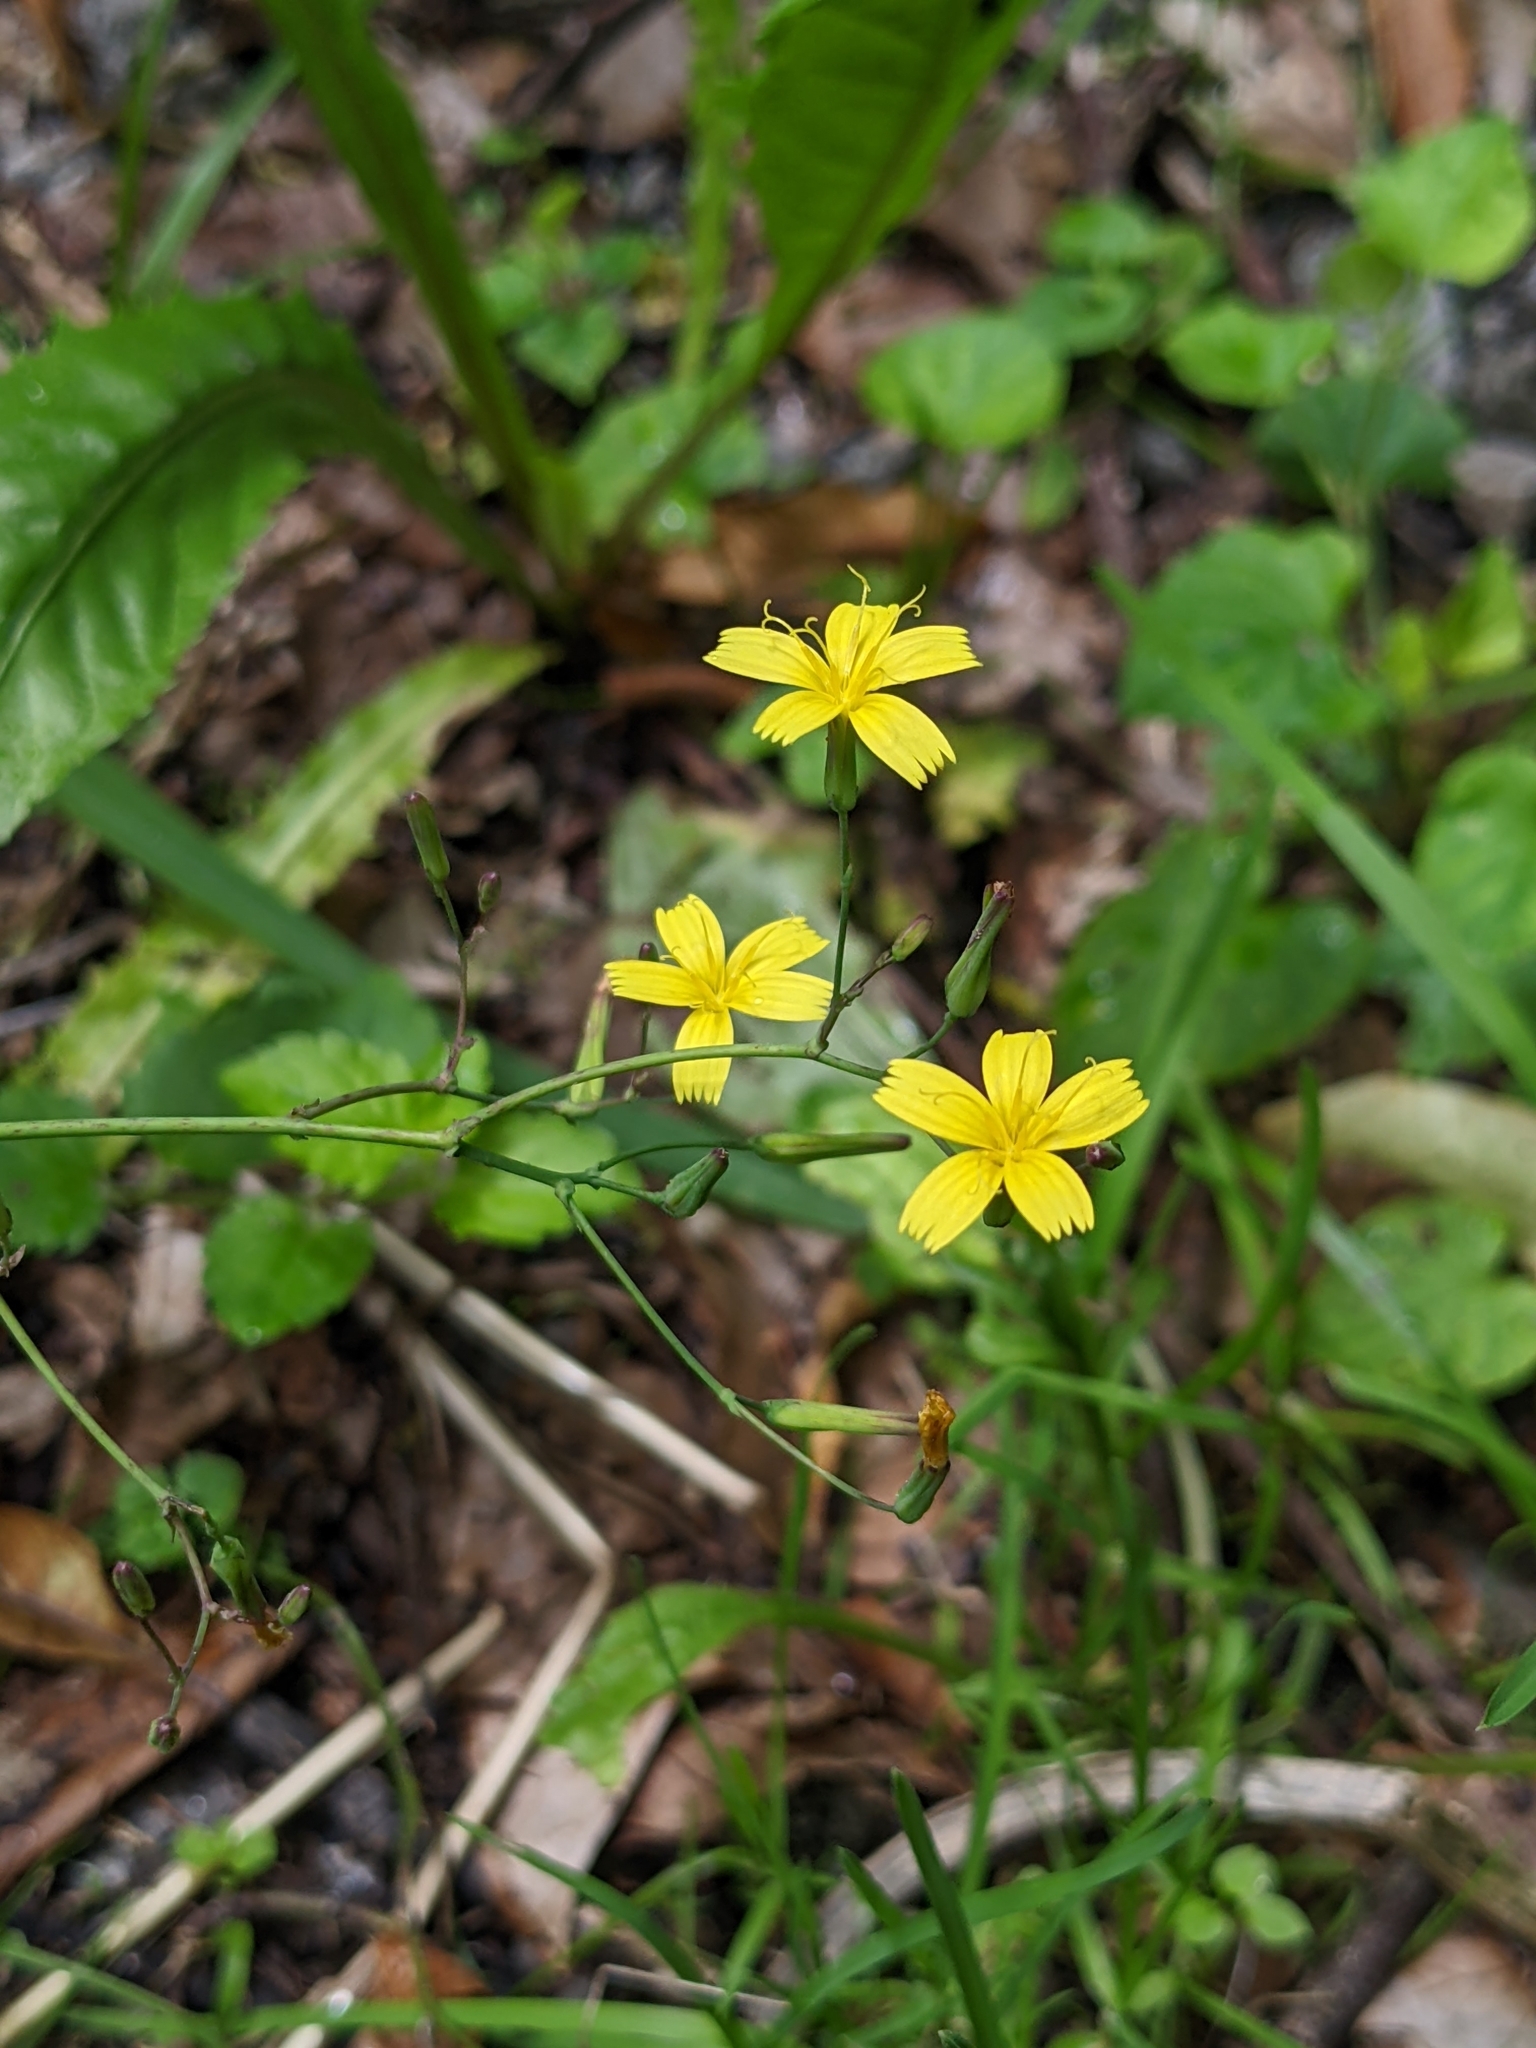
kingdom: Plantae
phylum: Tracheophyta
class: Magnoliopsida
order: Asterales
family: Asteraceae
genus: Mycelis
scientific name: Mycelis muralis
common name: Wall lettuce
